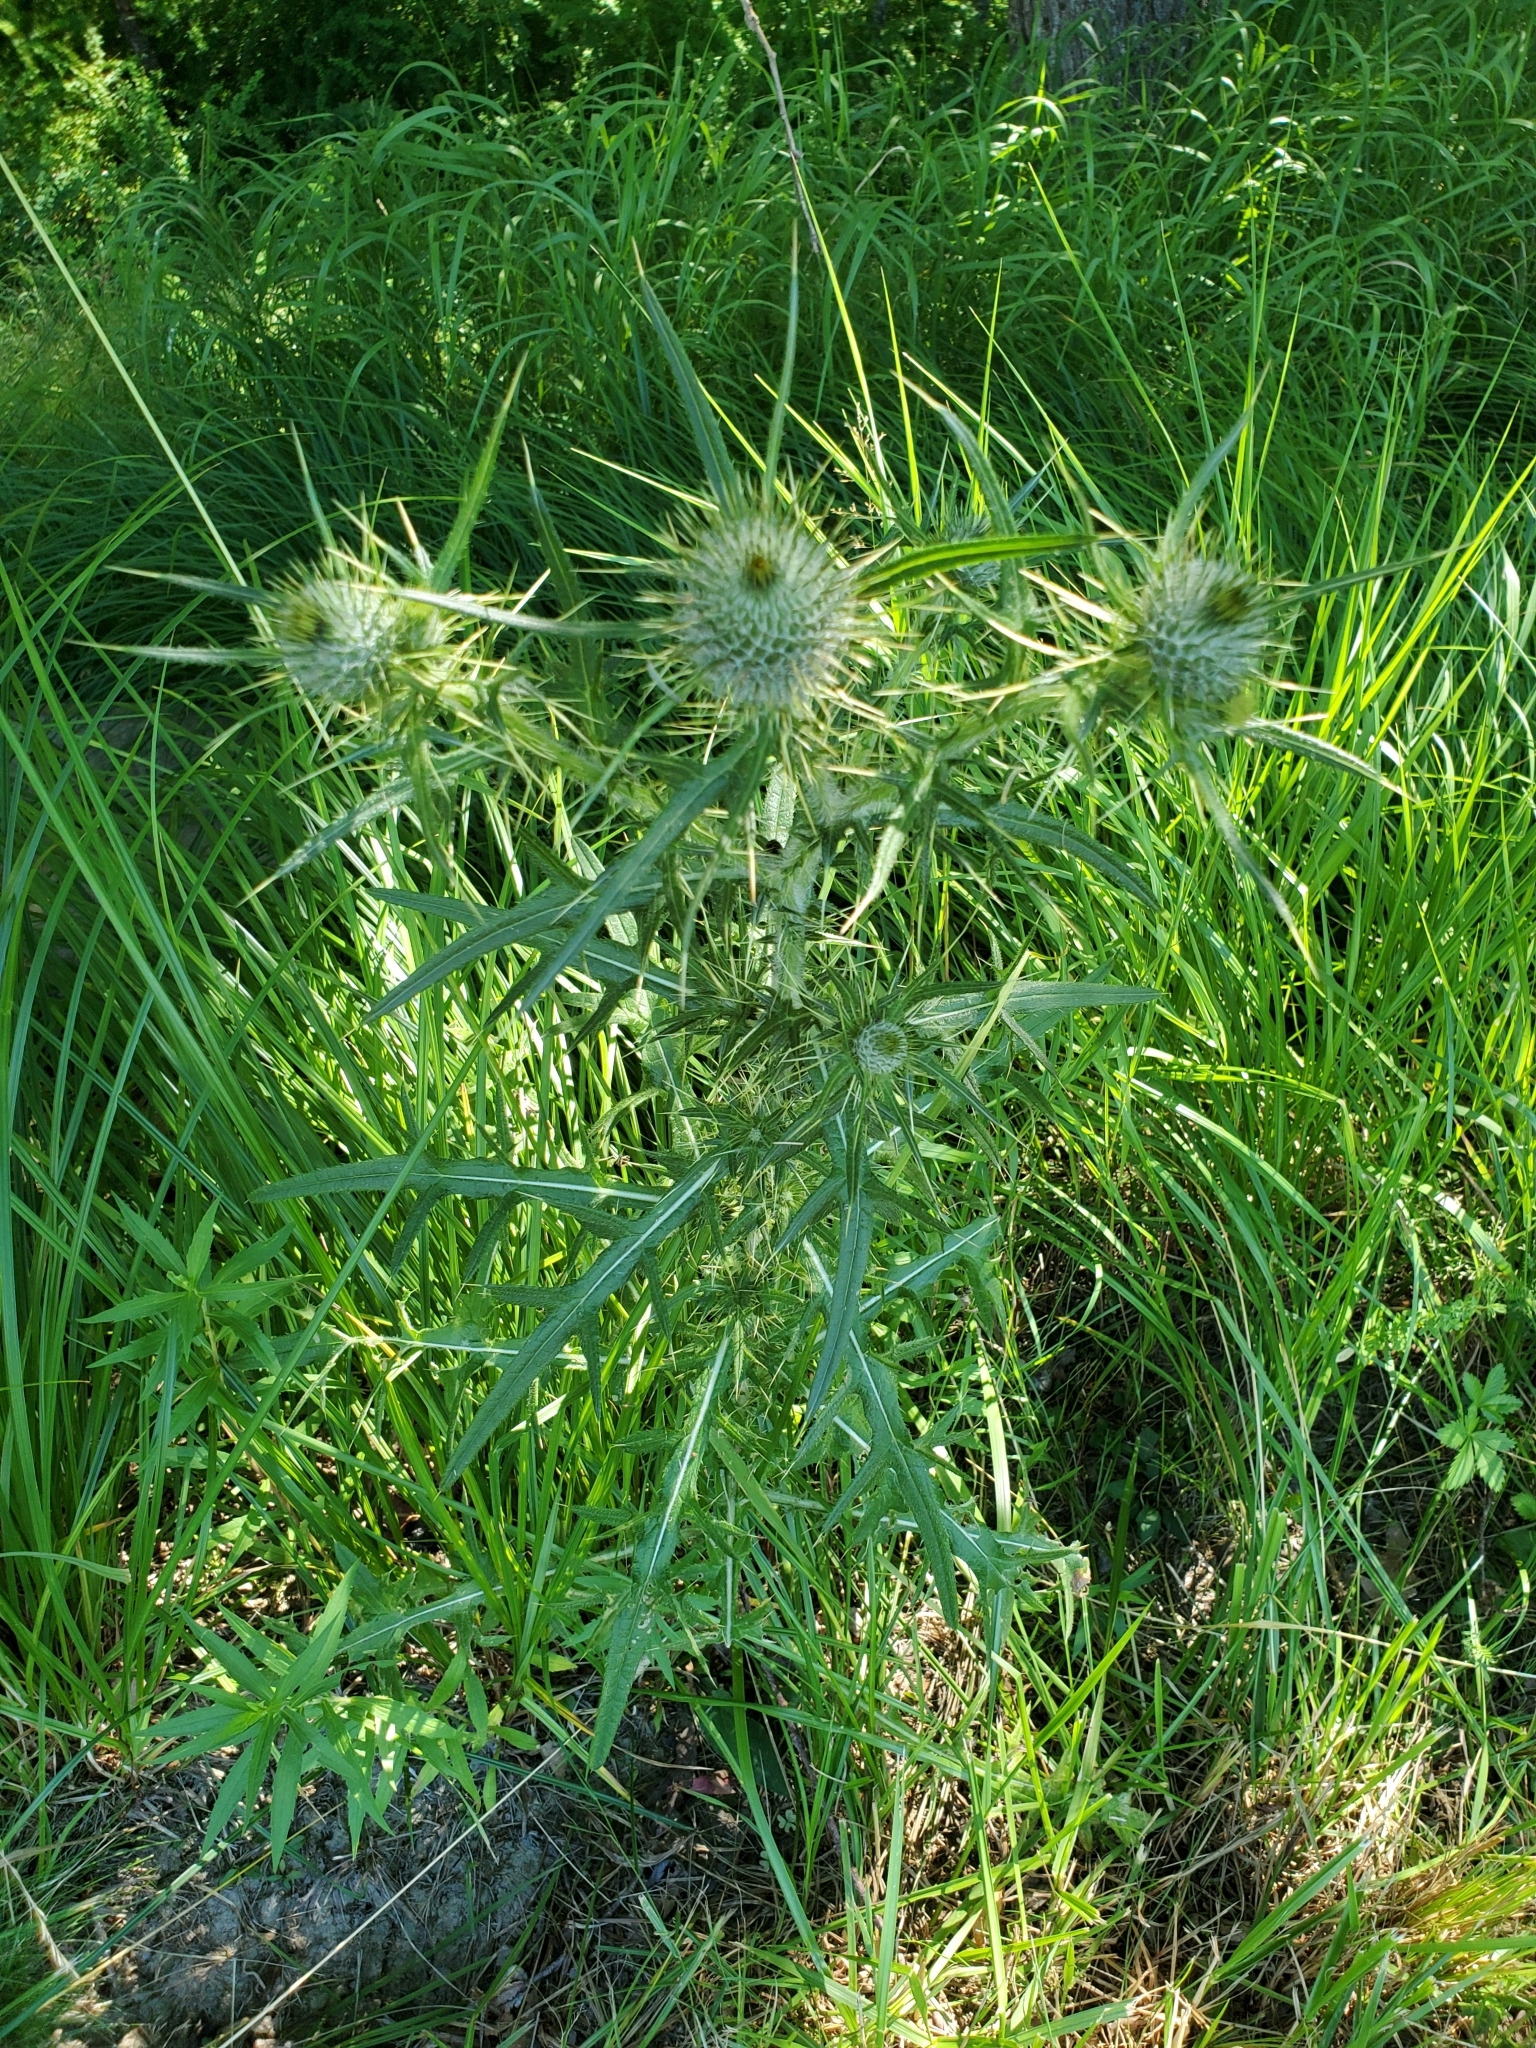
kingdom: Plantae
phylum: Tracheophyta
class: Magnoliopsida
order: Asterales
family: Asteraceae
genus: Cirsium
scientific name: Cirsium vulgare
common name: Bull thistle
